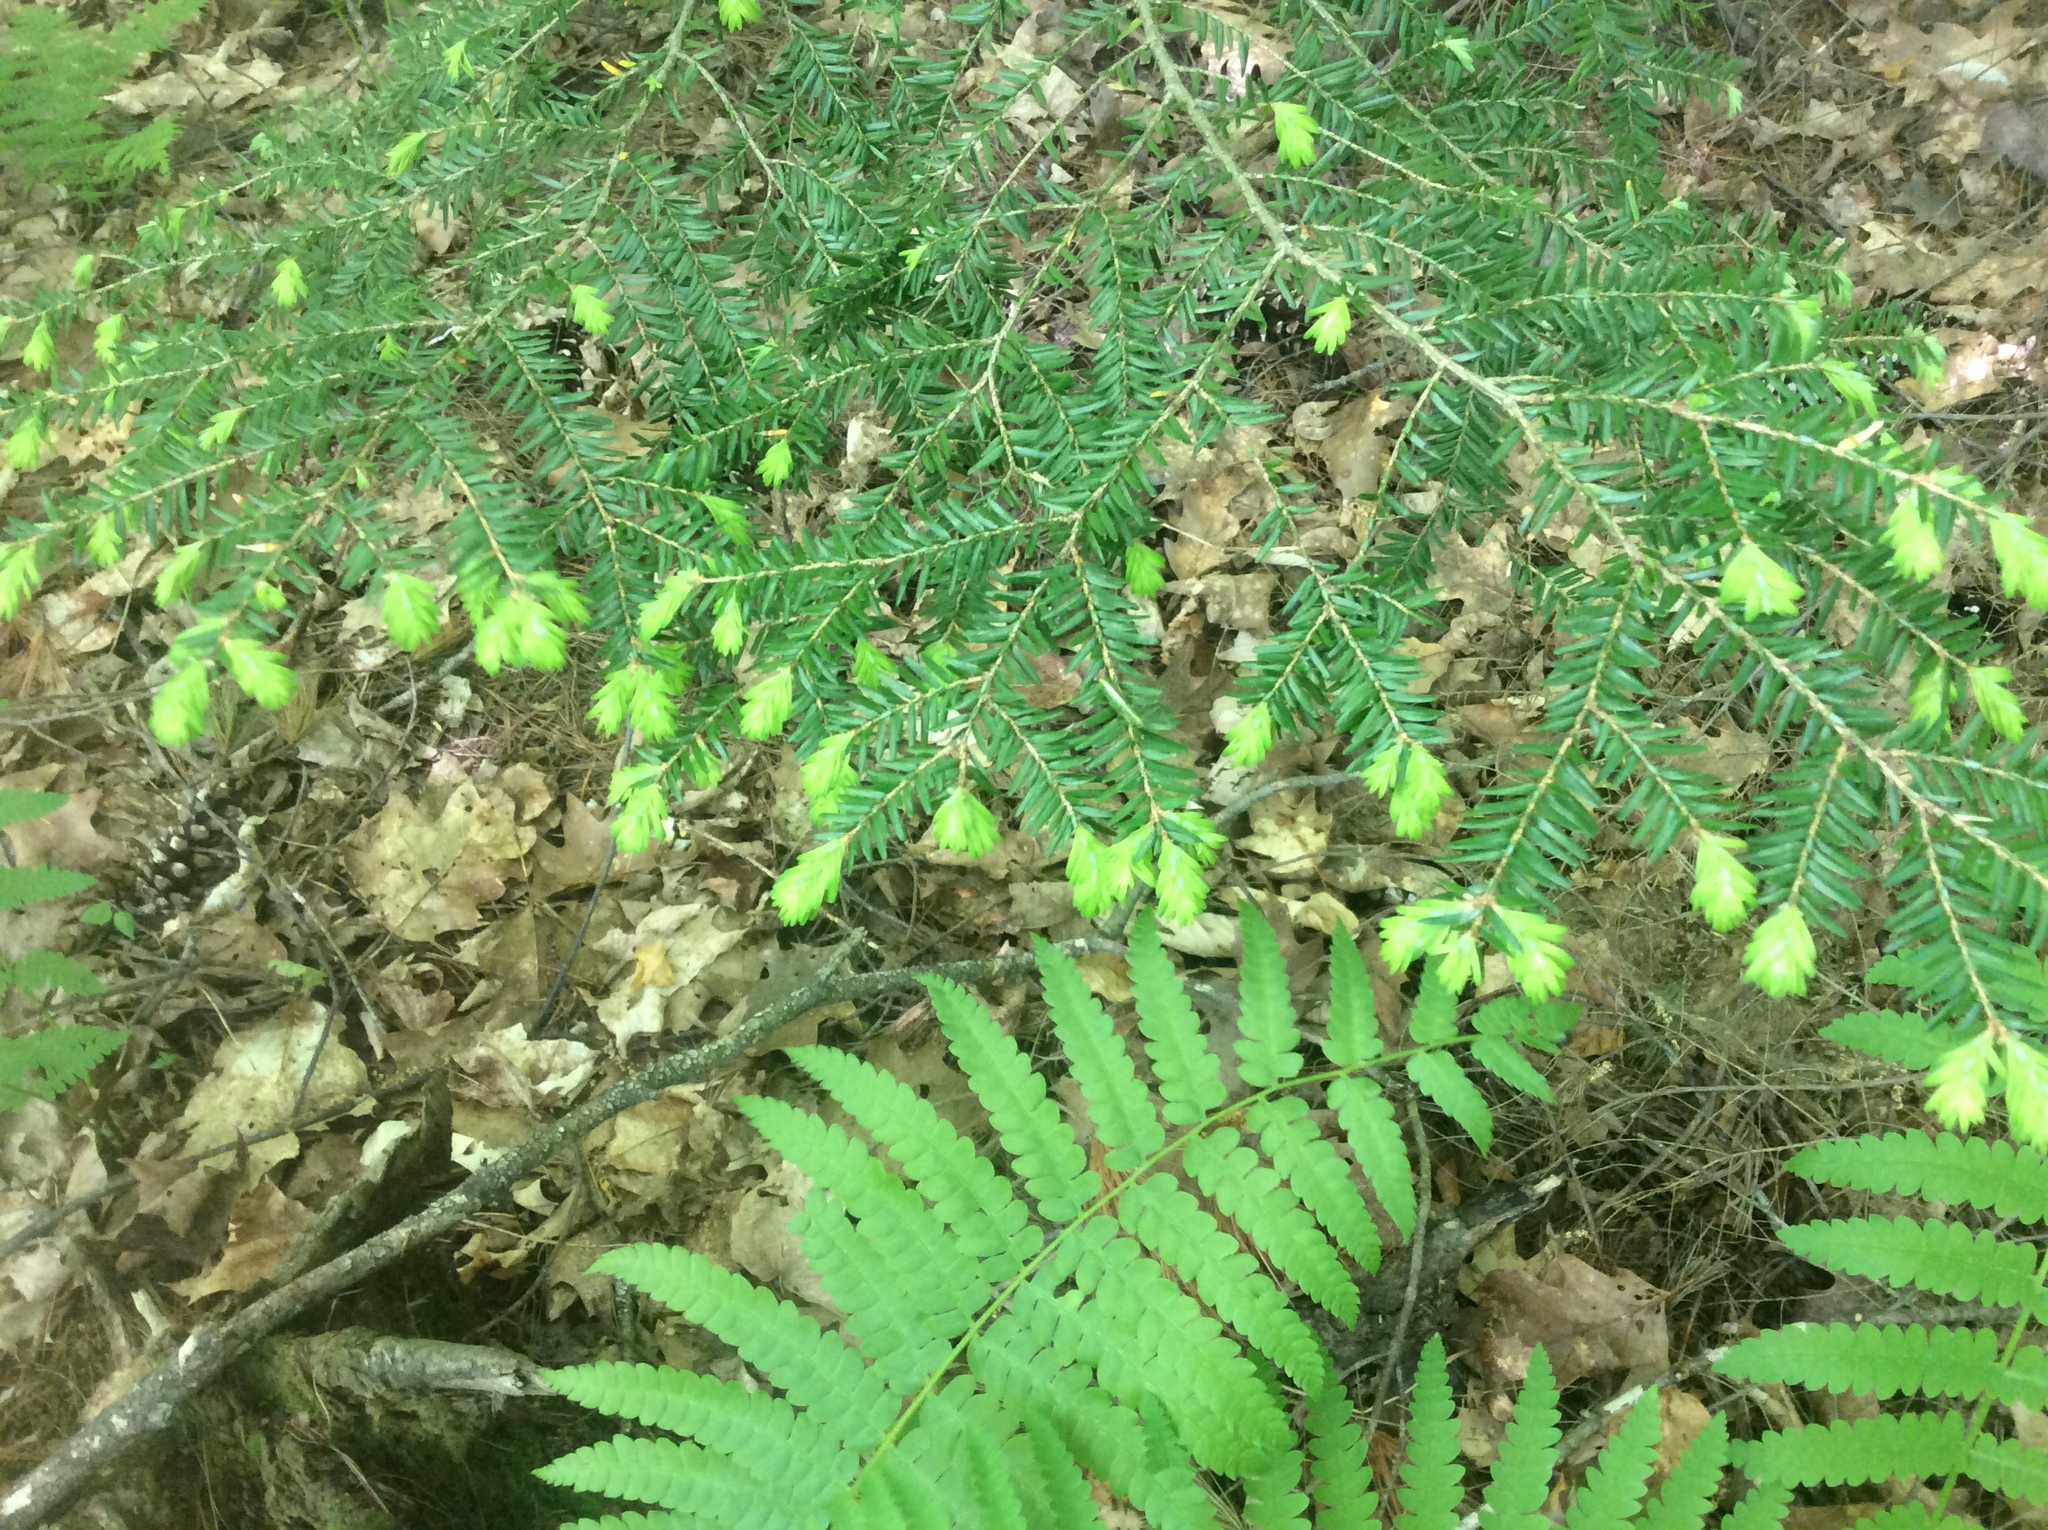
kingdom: Plantae
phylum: Tracheophyta
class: Pinopsida
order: Pinales
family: Pinaceae
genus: Tsuga
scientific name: Tsuga canadensis
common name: Eastern hemlock
